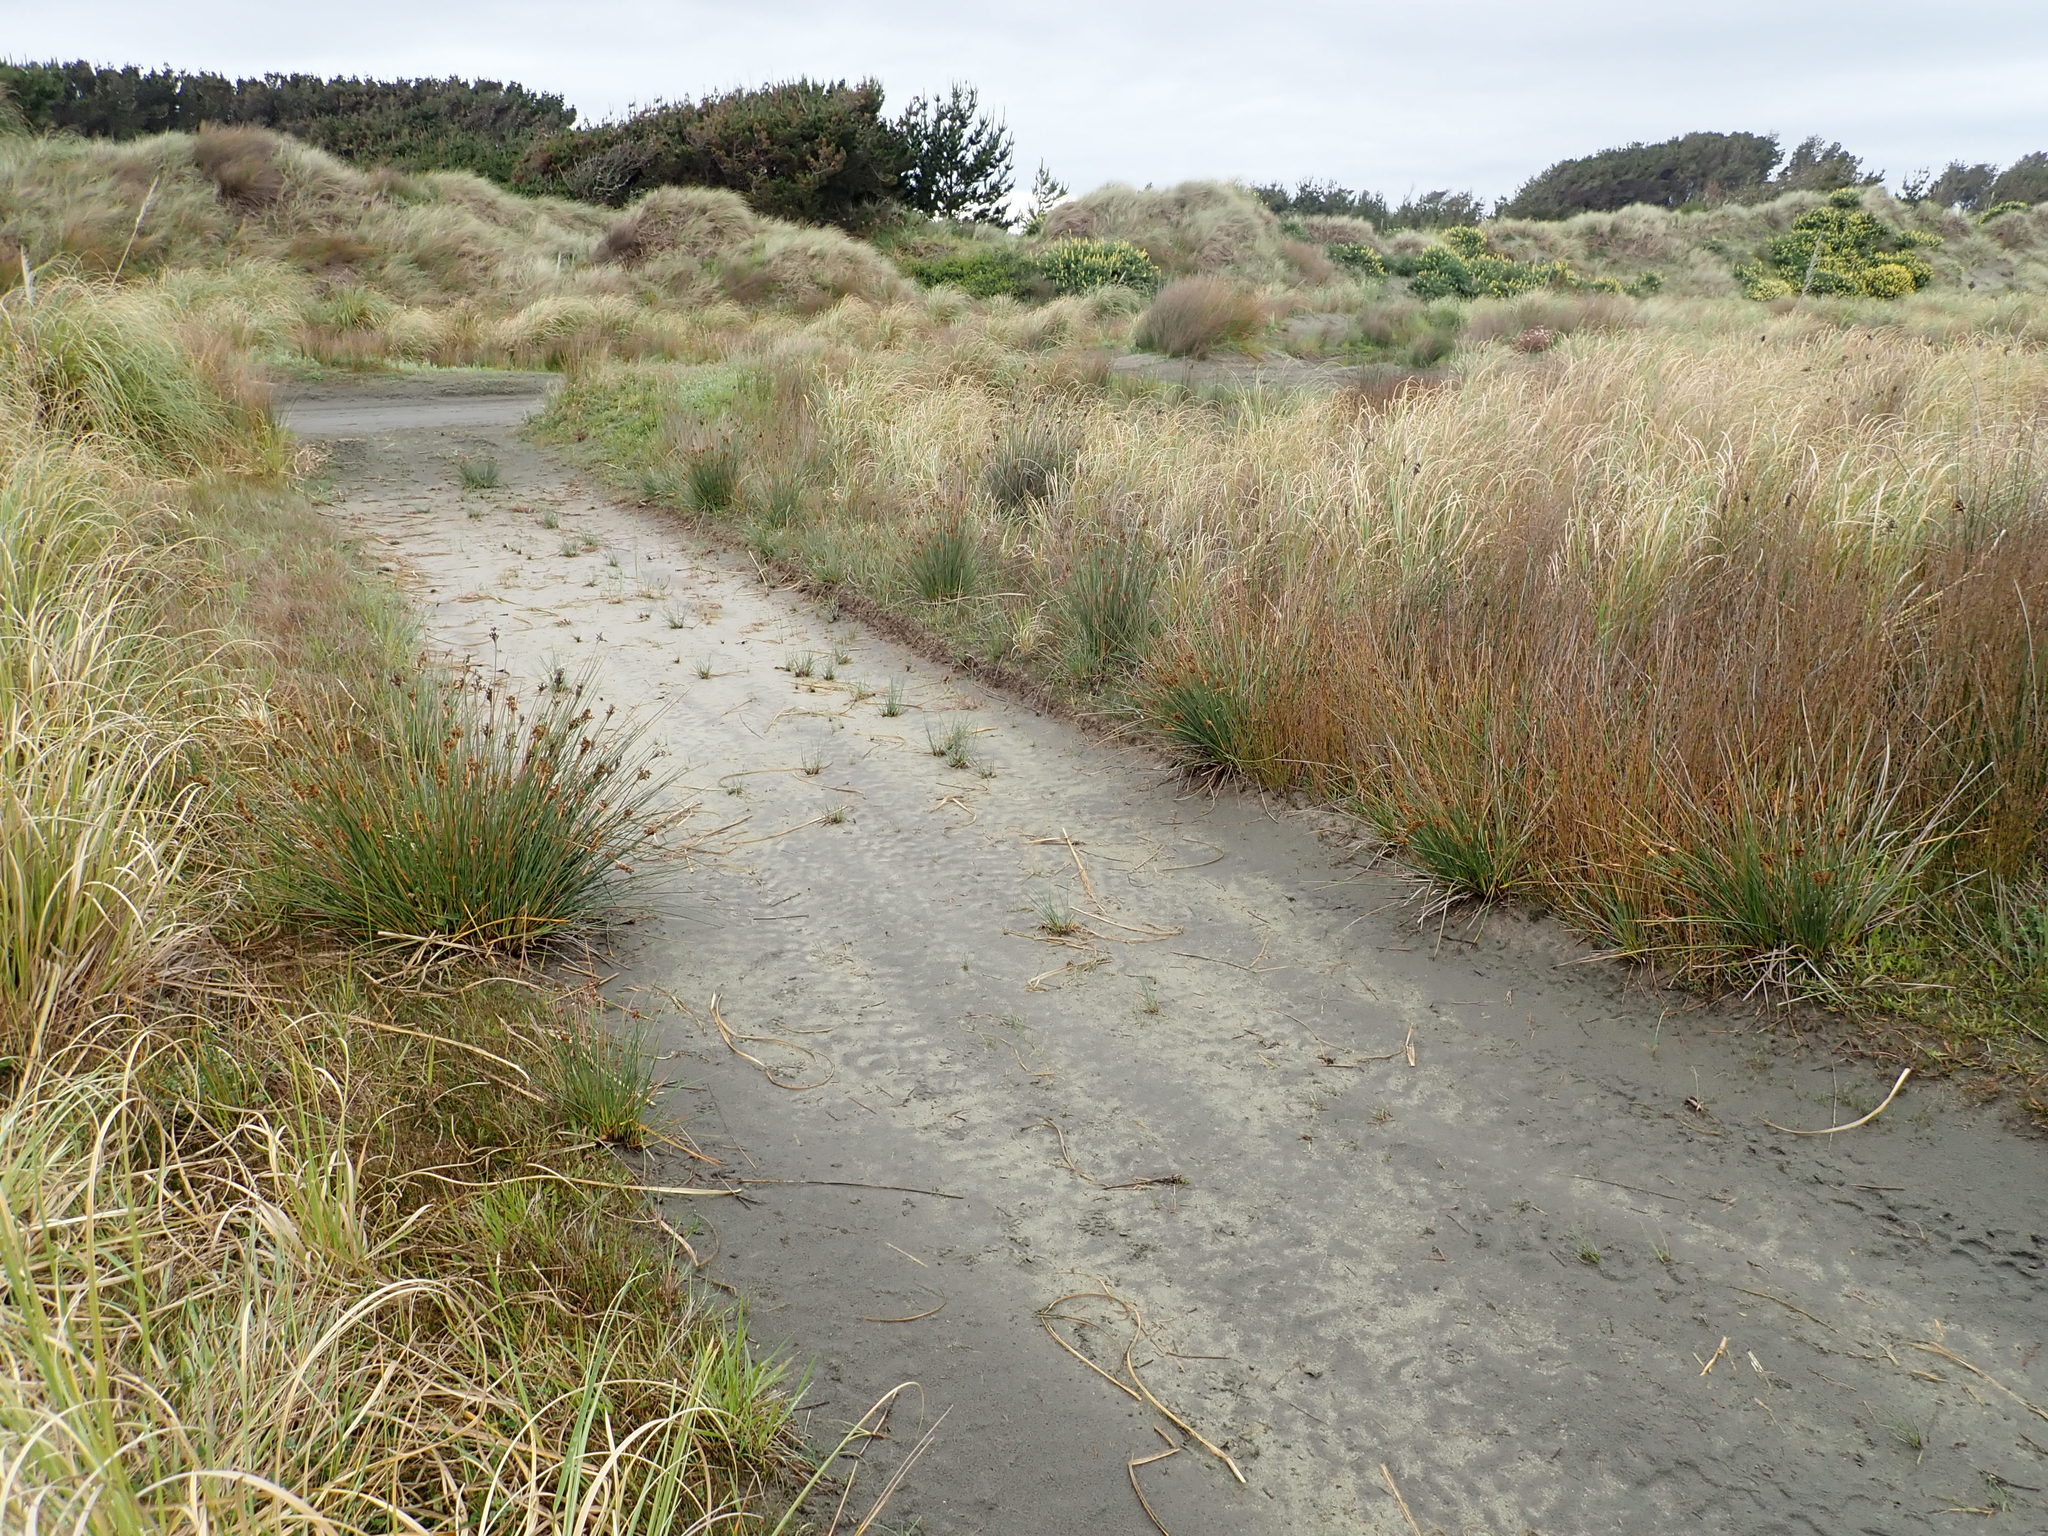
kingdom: Plantae
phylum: Tracheophyta
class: Liliopsida
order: Poales
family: Juncaceae
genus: Juncus
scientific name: Juncus acutus
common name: Sharp rush
